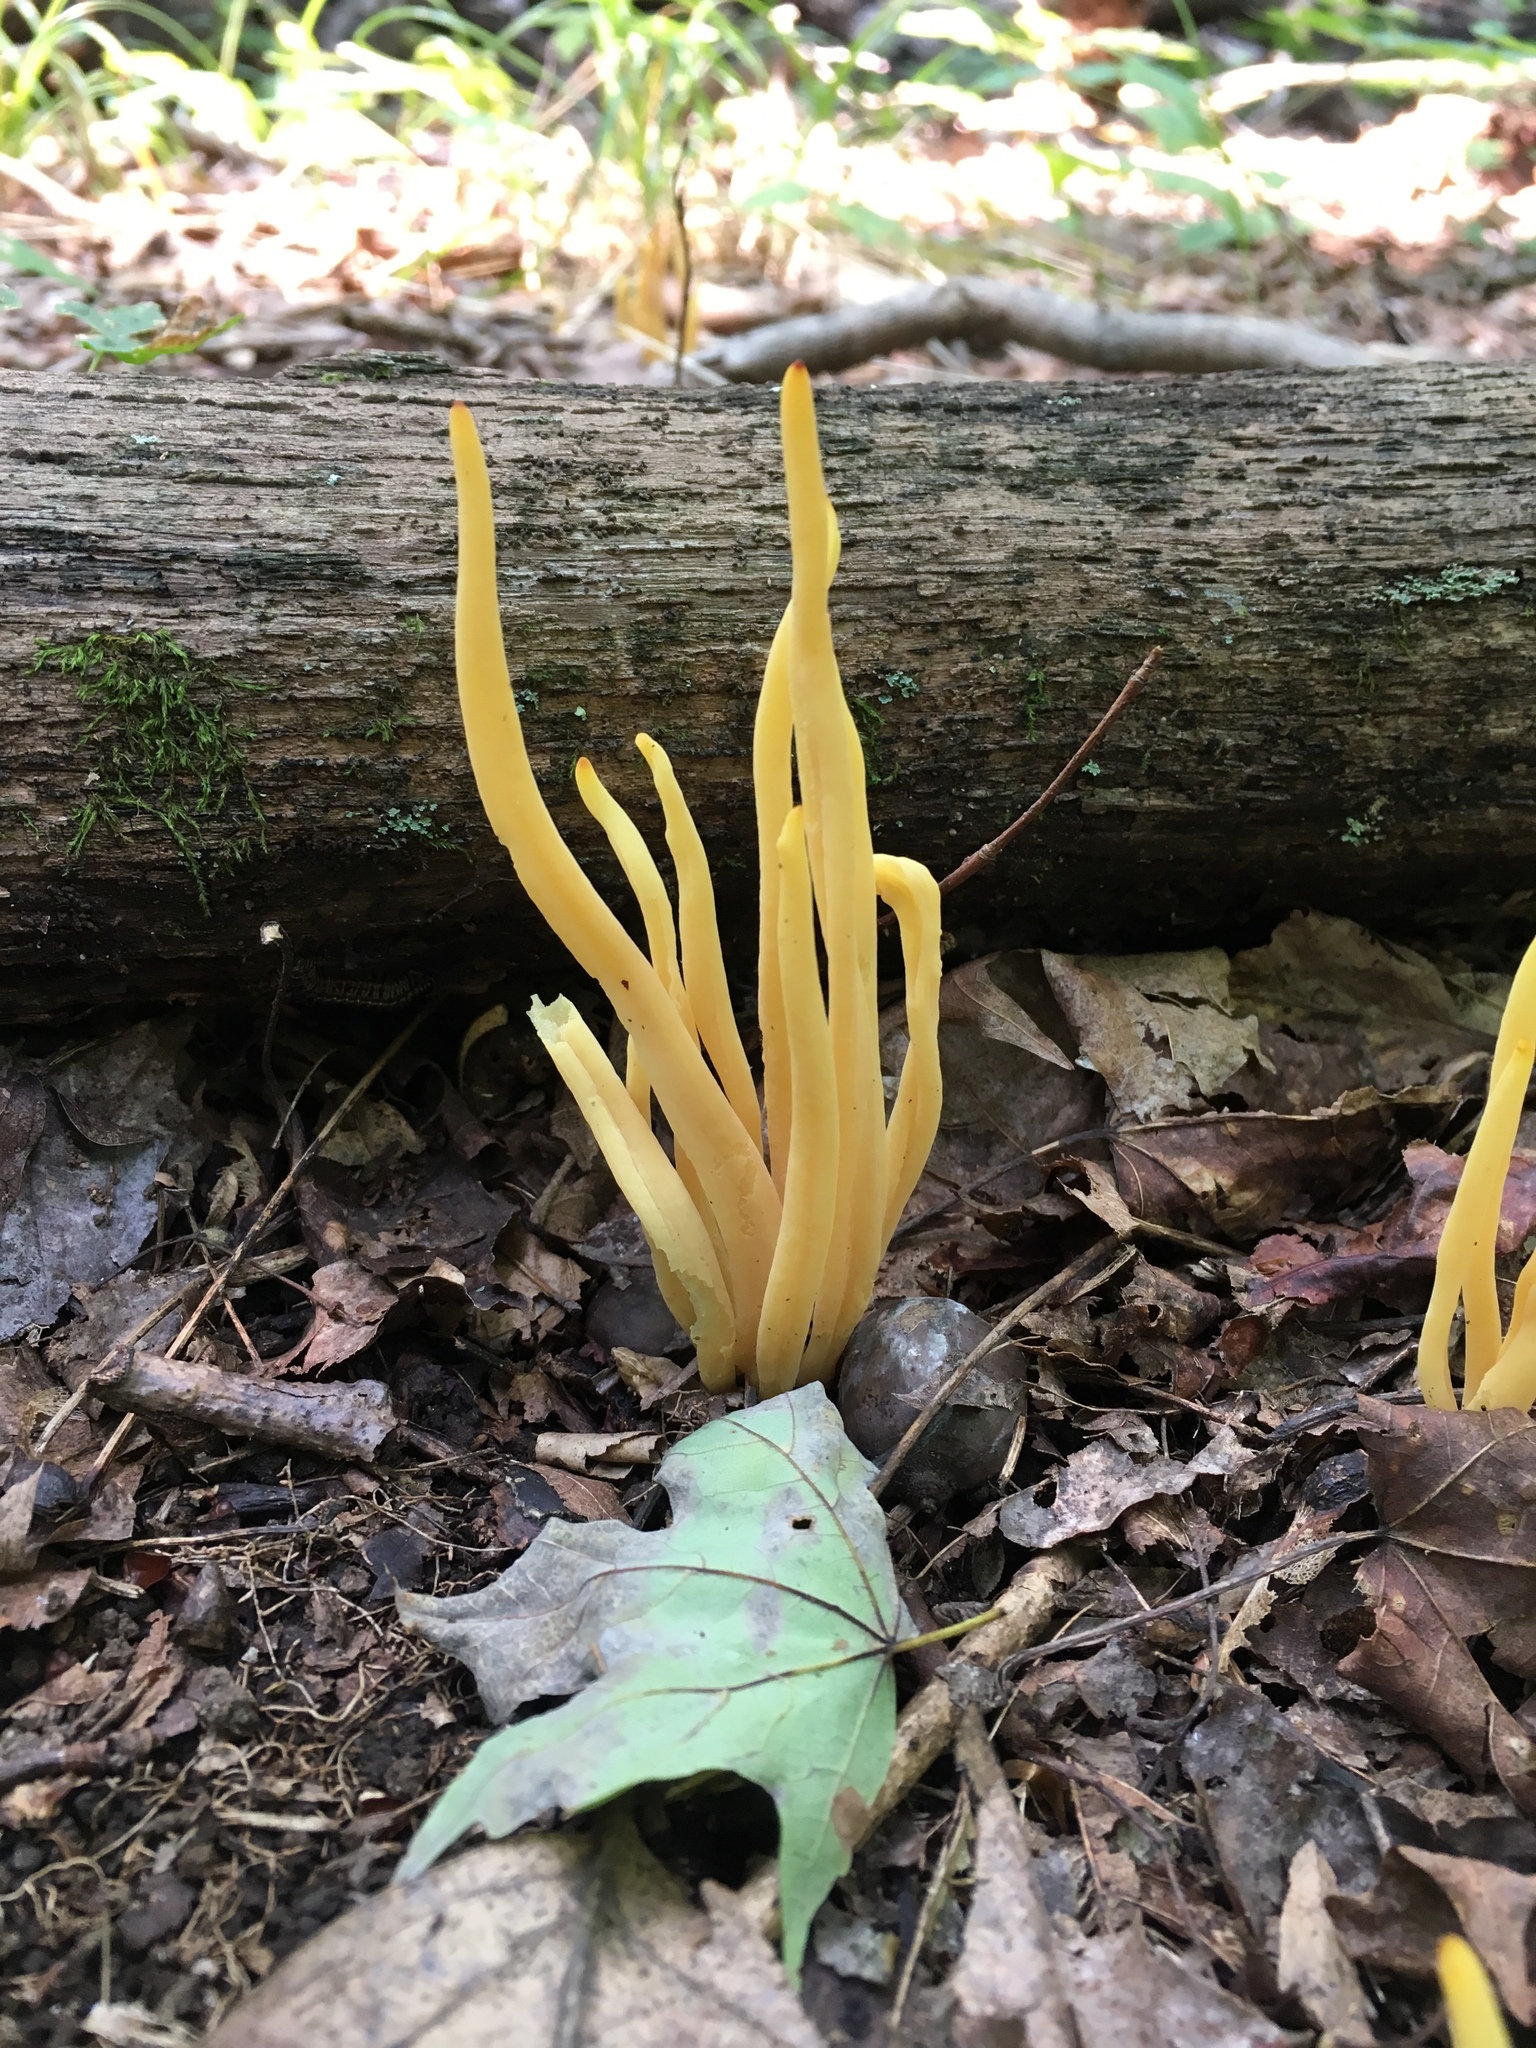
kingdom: Fungi
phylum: Basidiomycota
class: Agaricomycetes
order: Agaricales
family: Clavariaceae
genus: Clavulinopsis
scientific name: Clavulinopsis fusiformis
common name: Golden spindles
